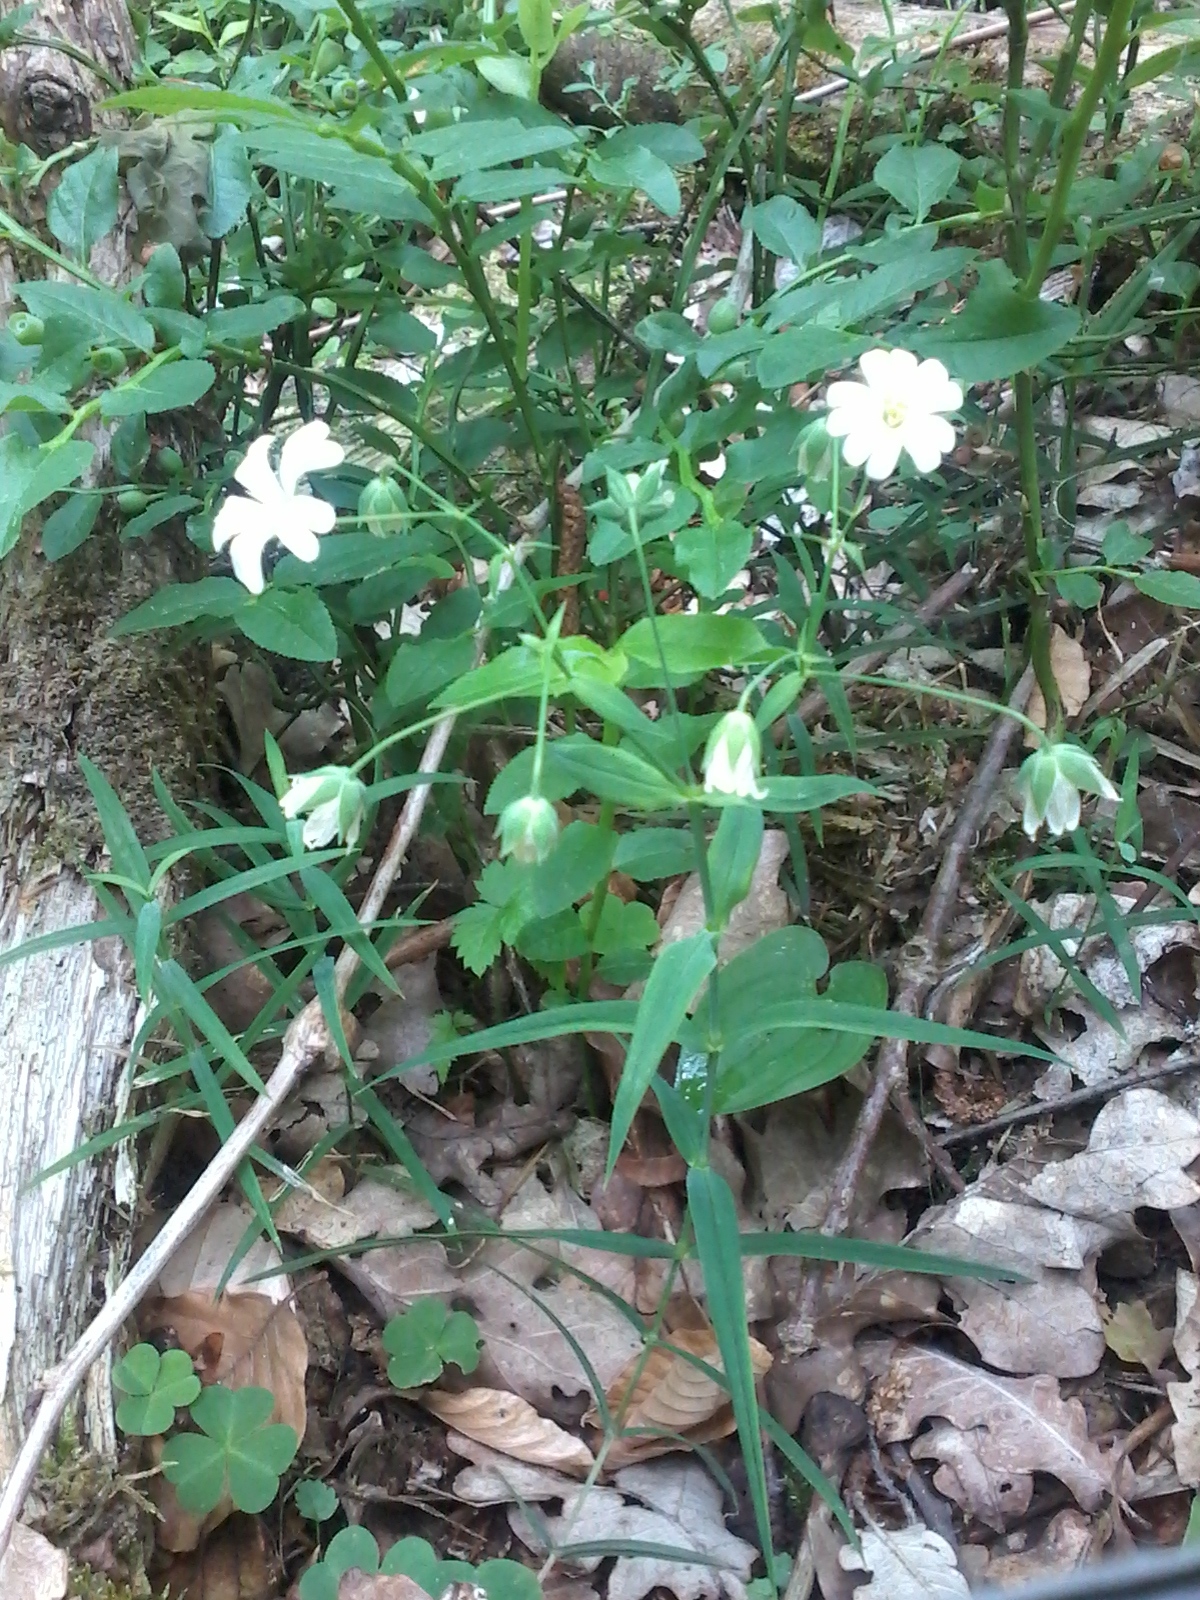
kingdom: Plantae
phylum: Tracheophyta
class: Magnoliopsida
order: Caryophyllales
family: Caryophyllaceae
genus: Rabelera
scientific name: Rabelera holostea
